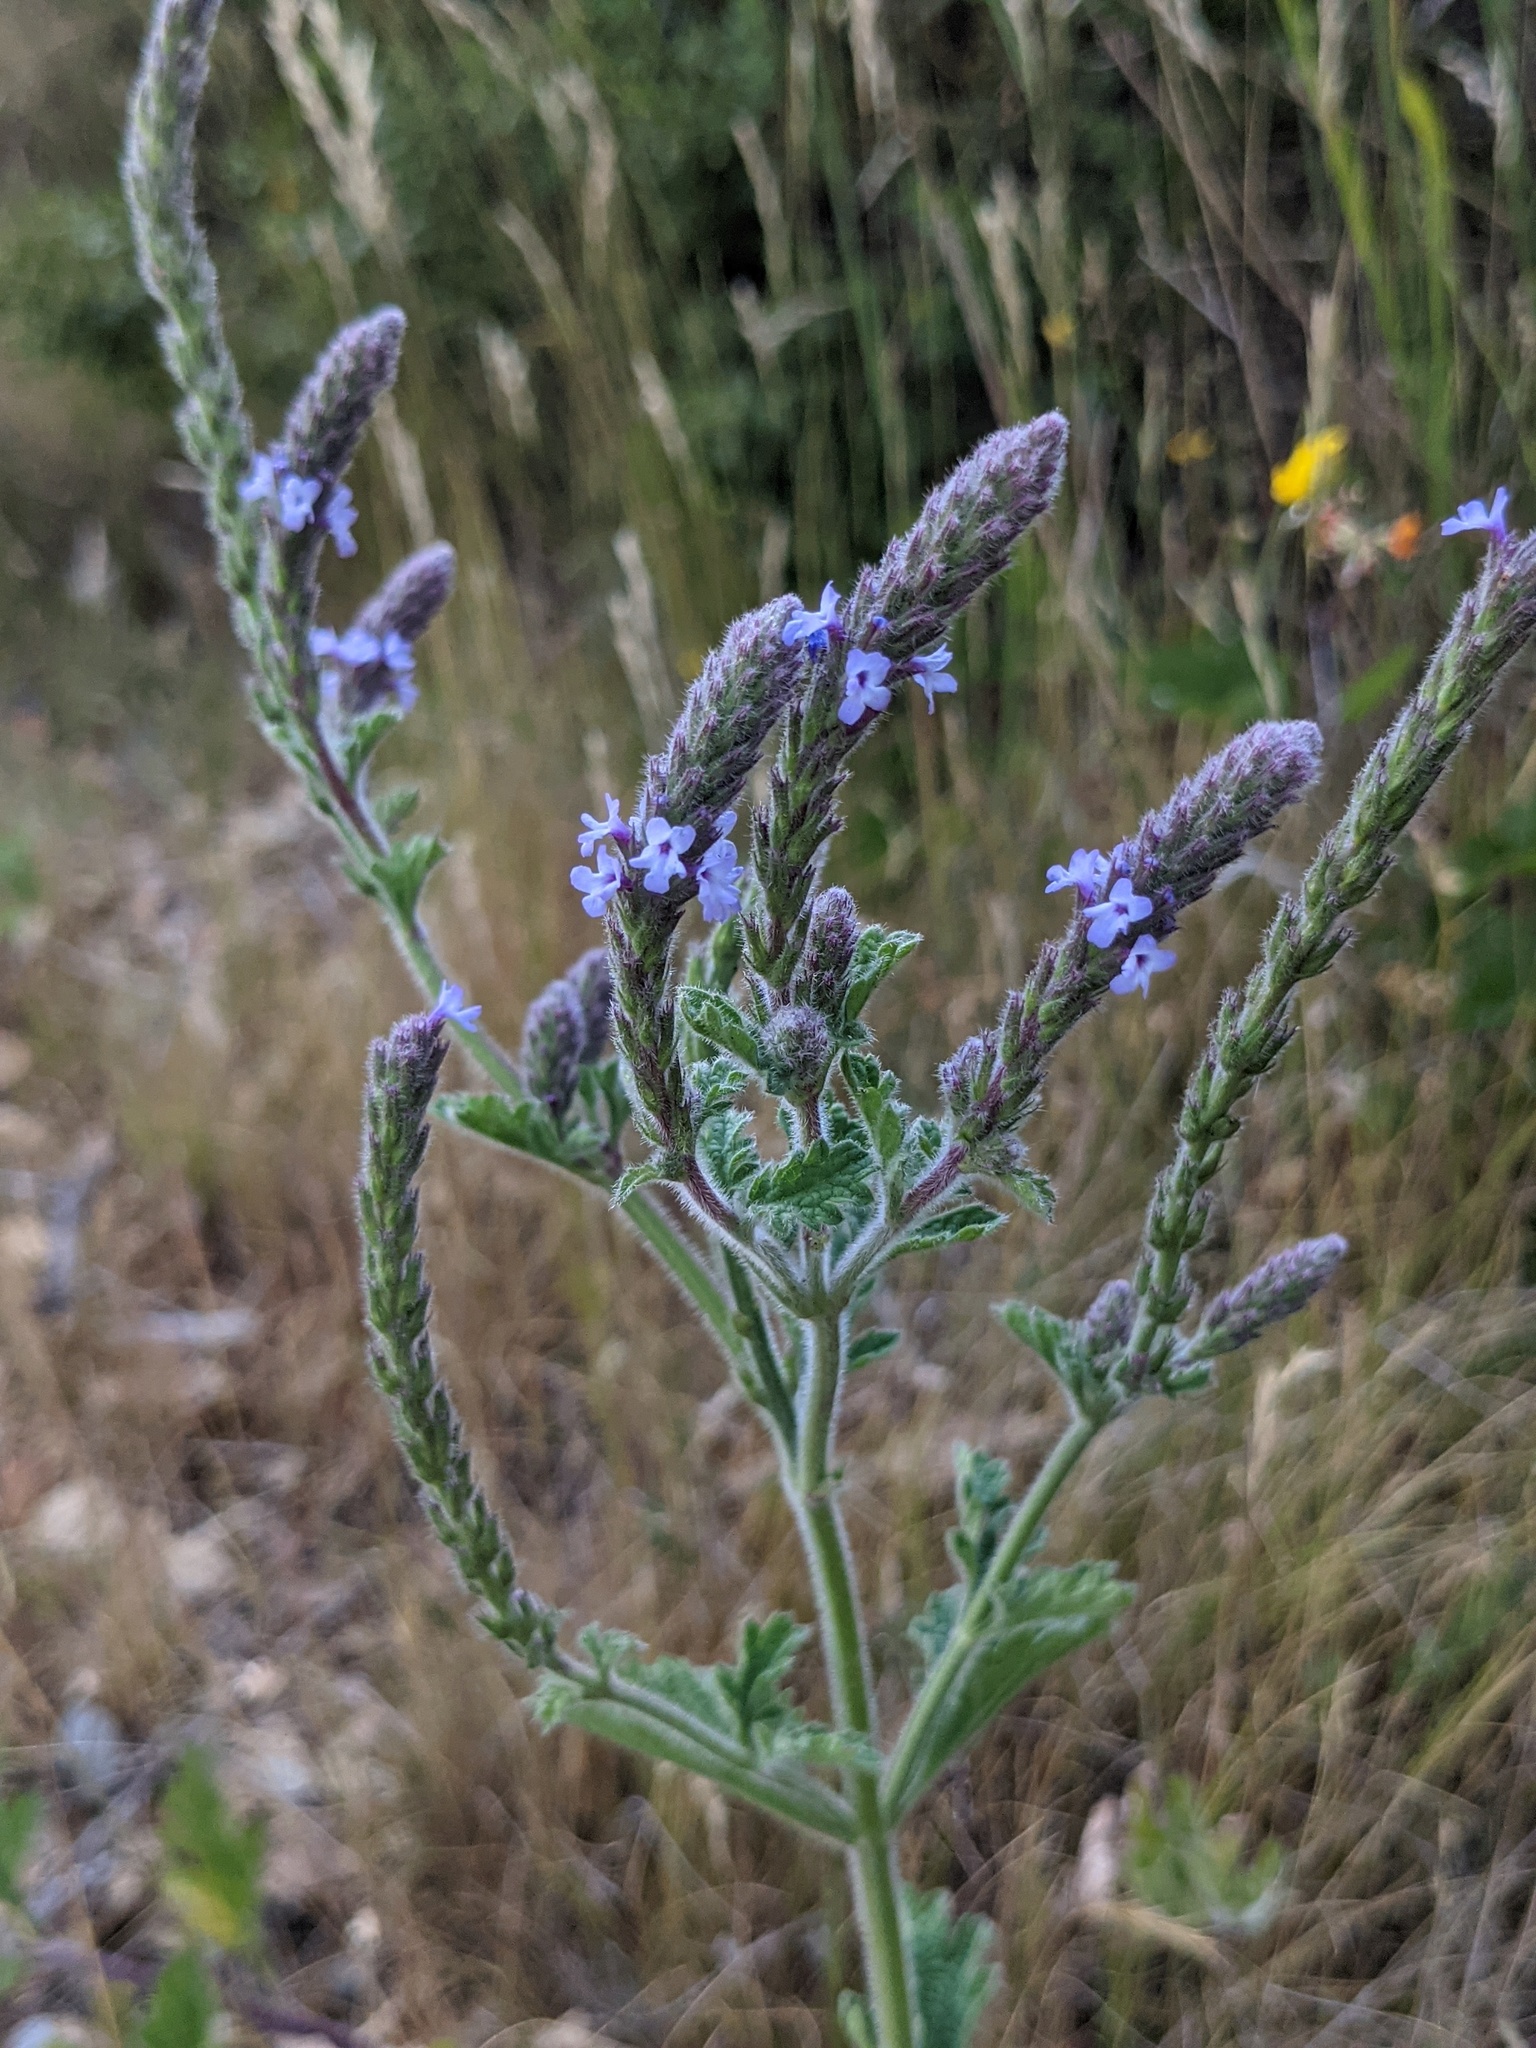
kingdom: Plantae
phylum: Tracheophyta
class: Magnoliopsida
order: Lamiales
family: Verbenaceae
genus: Verbena
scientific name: Verbena lasiostachys
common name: Vervain
